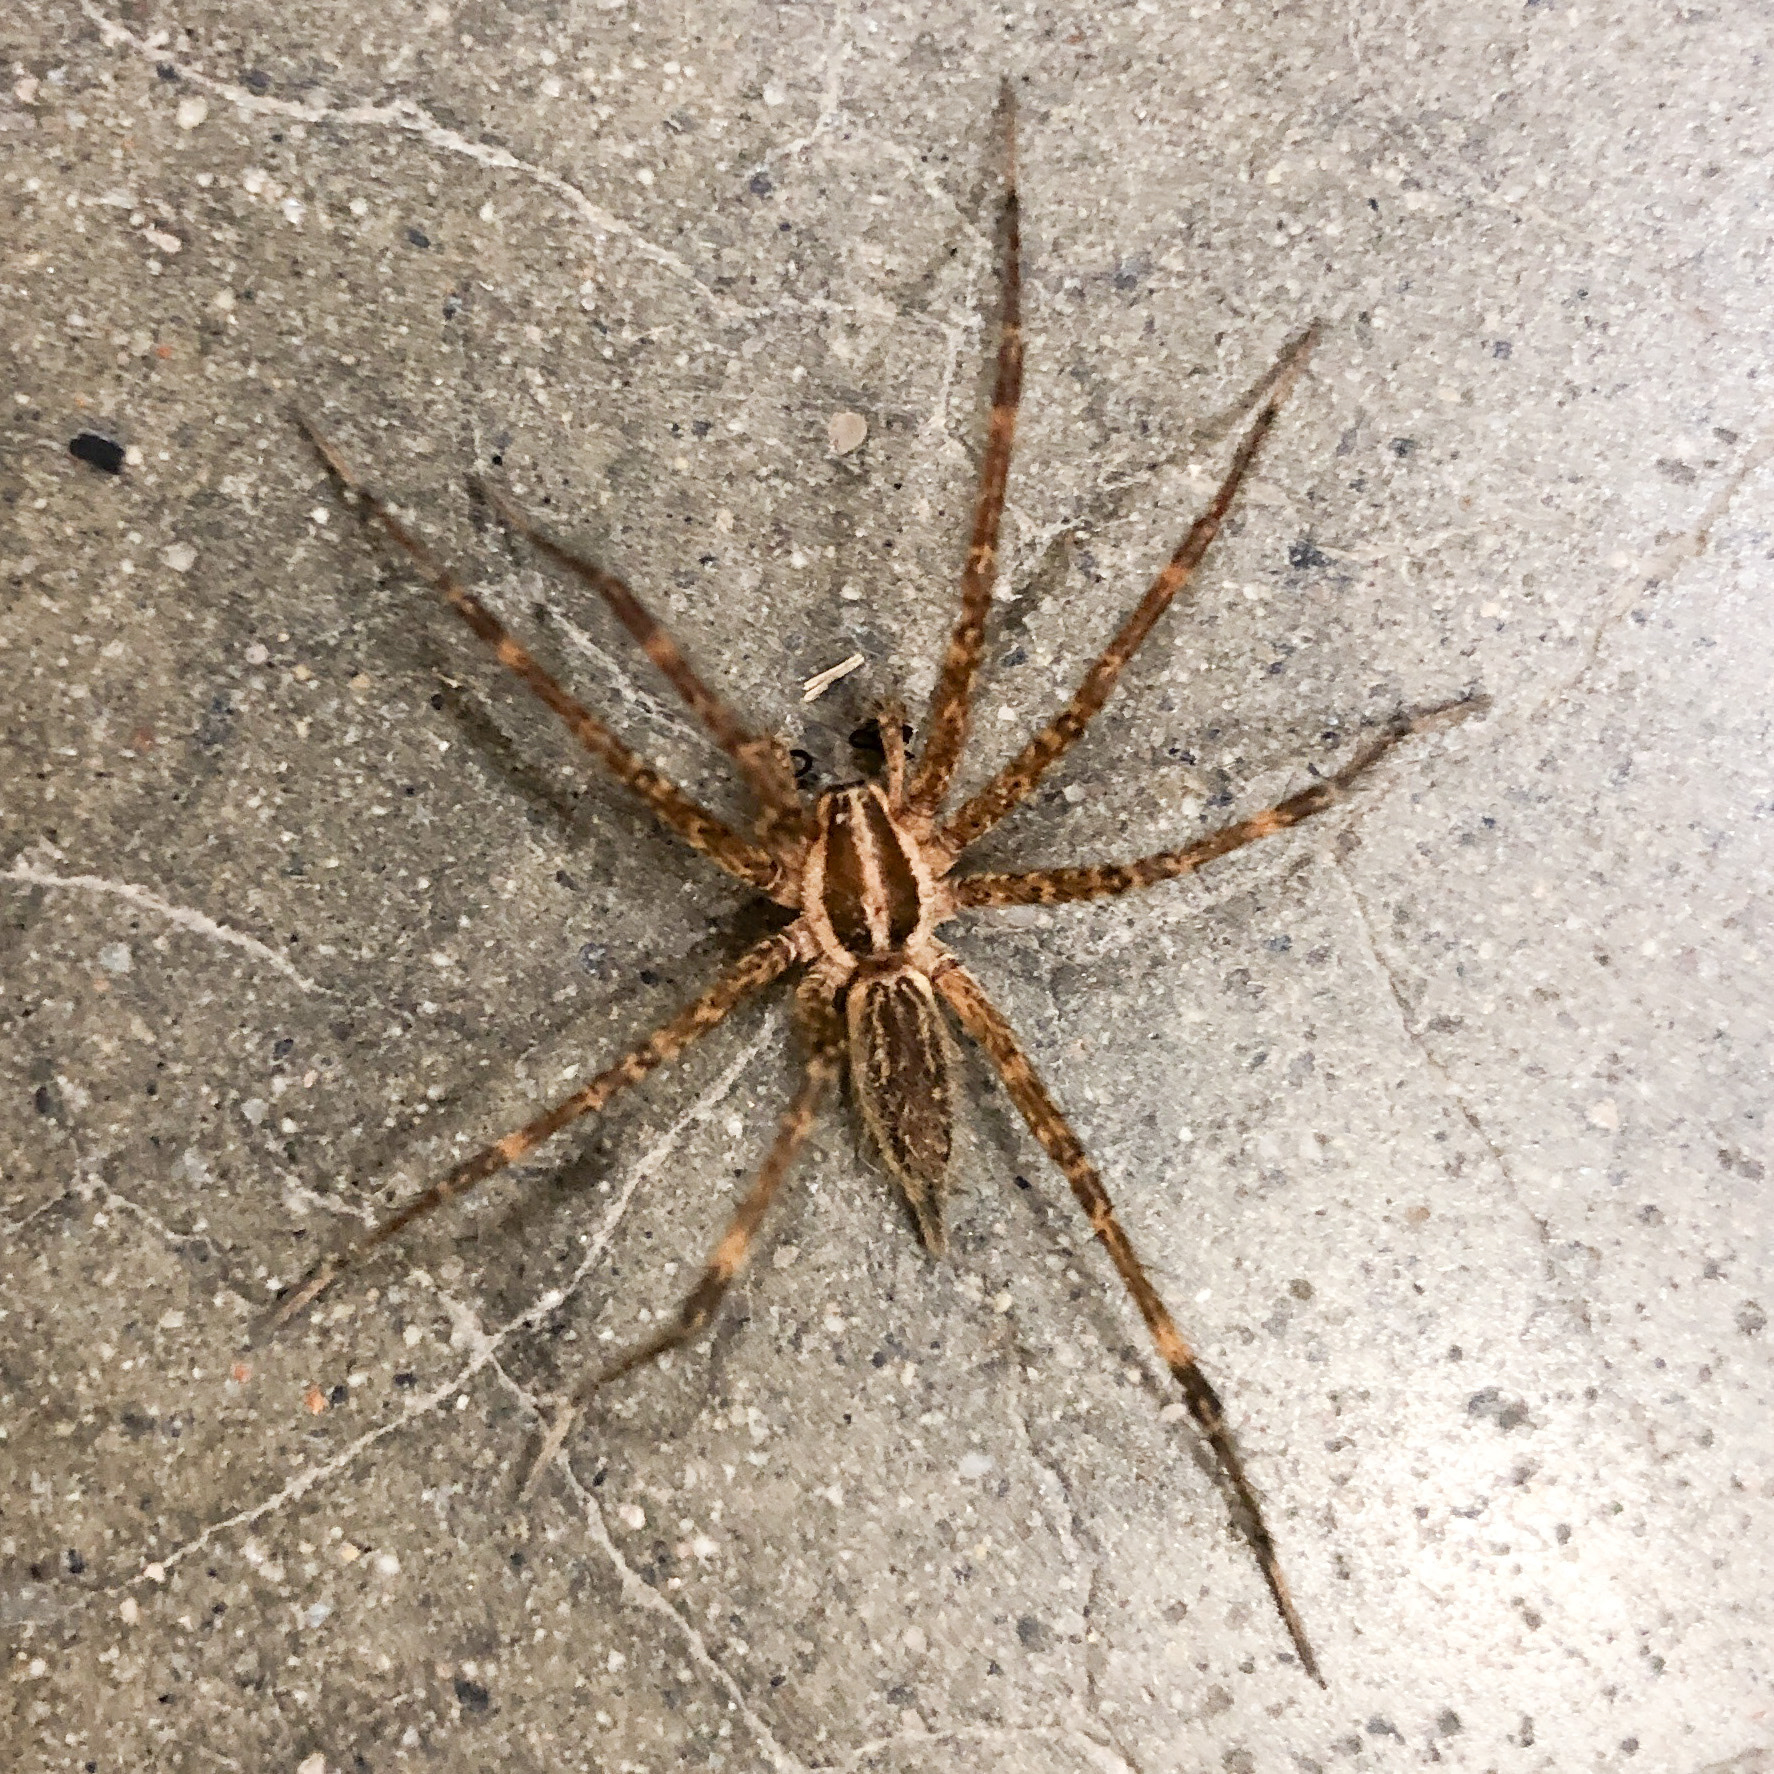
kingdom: Animalia
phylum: Arthropoda
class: Arachnida
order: Araneae
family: Agelenidae
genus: Agelenopsis
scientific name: Agelenopsis
